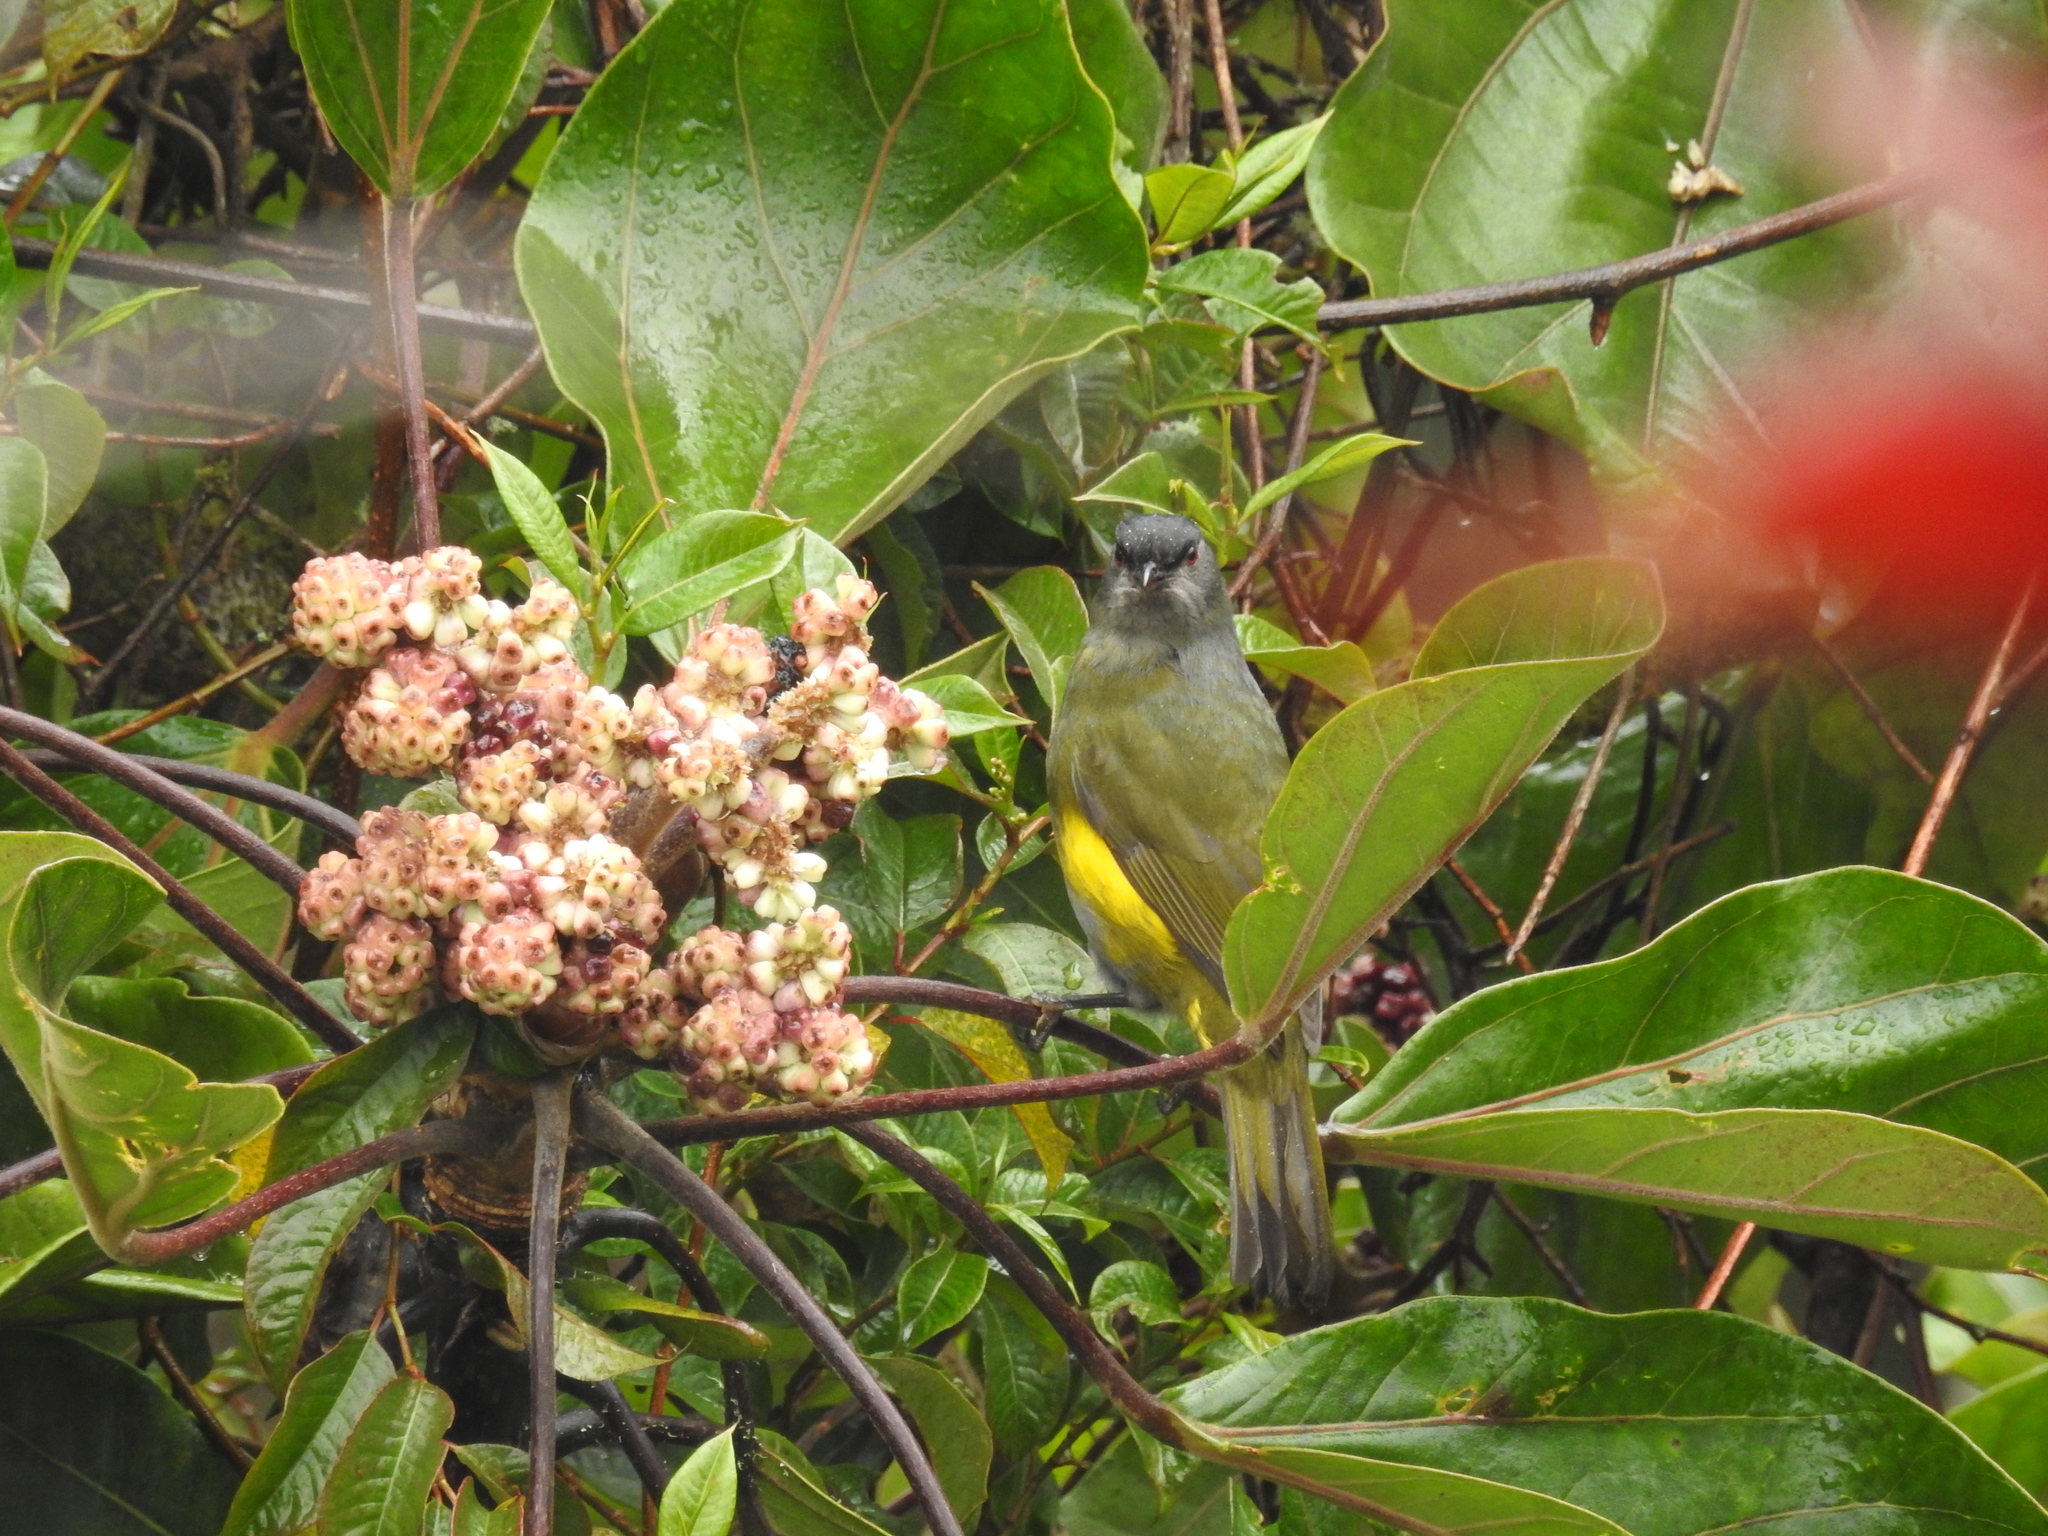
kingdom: Animalia
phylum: Chordata
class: Aves
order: Passeriformes
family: Ptilogonatidae
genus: Phainoptila
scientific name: Phainoptila melanoxantha
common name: Black-and-yellow phainoptila
